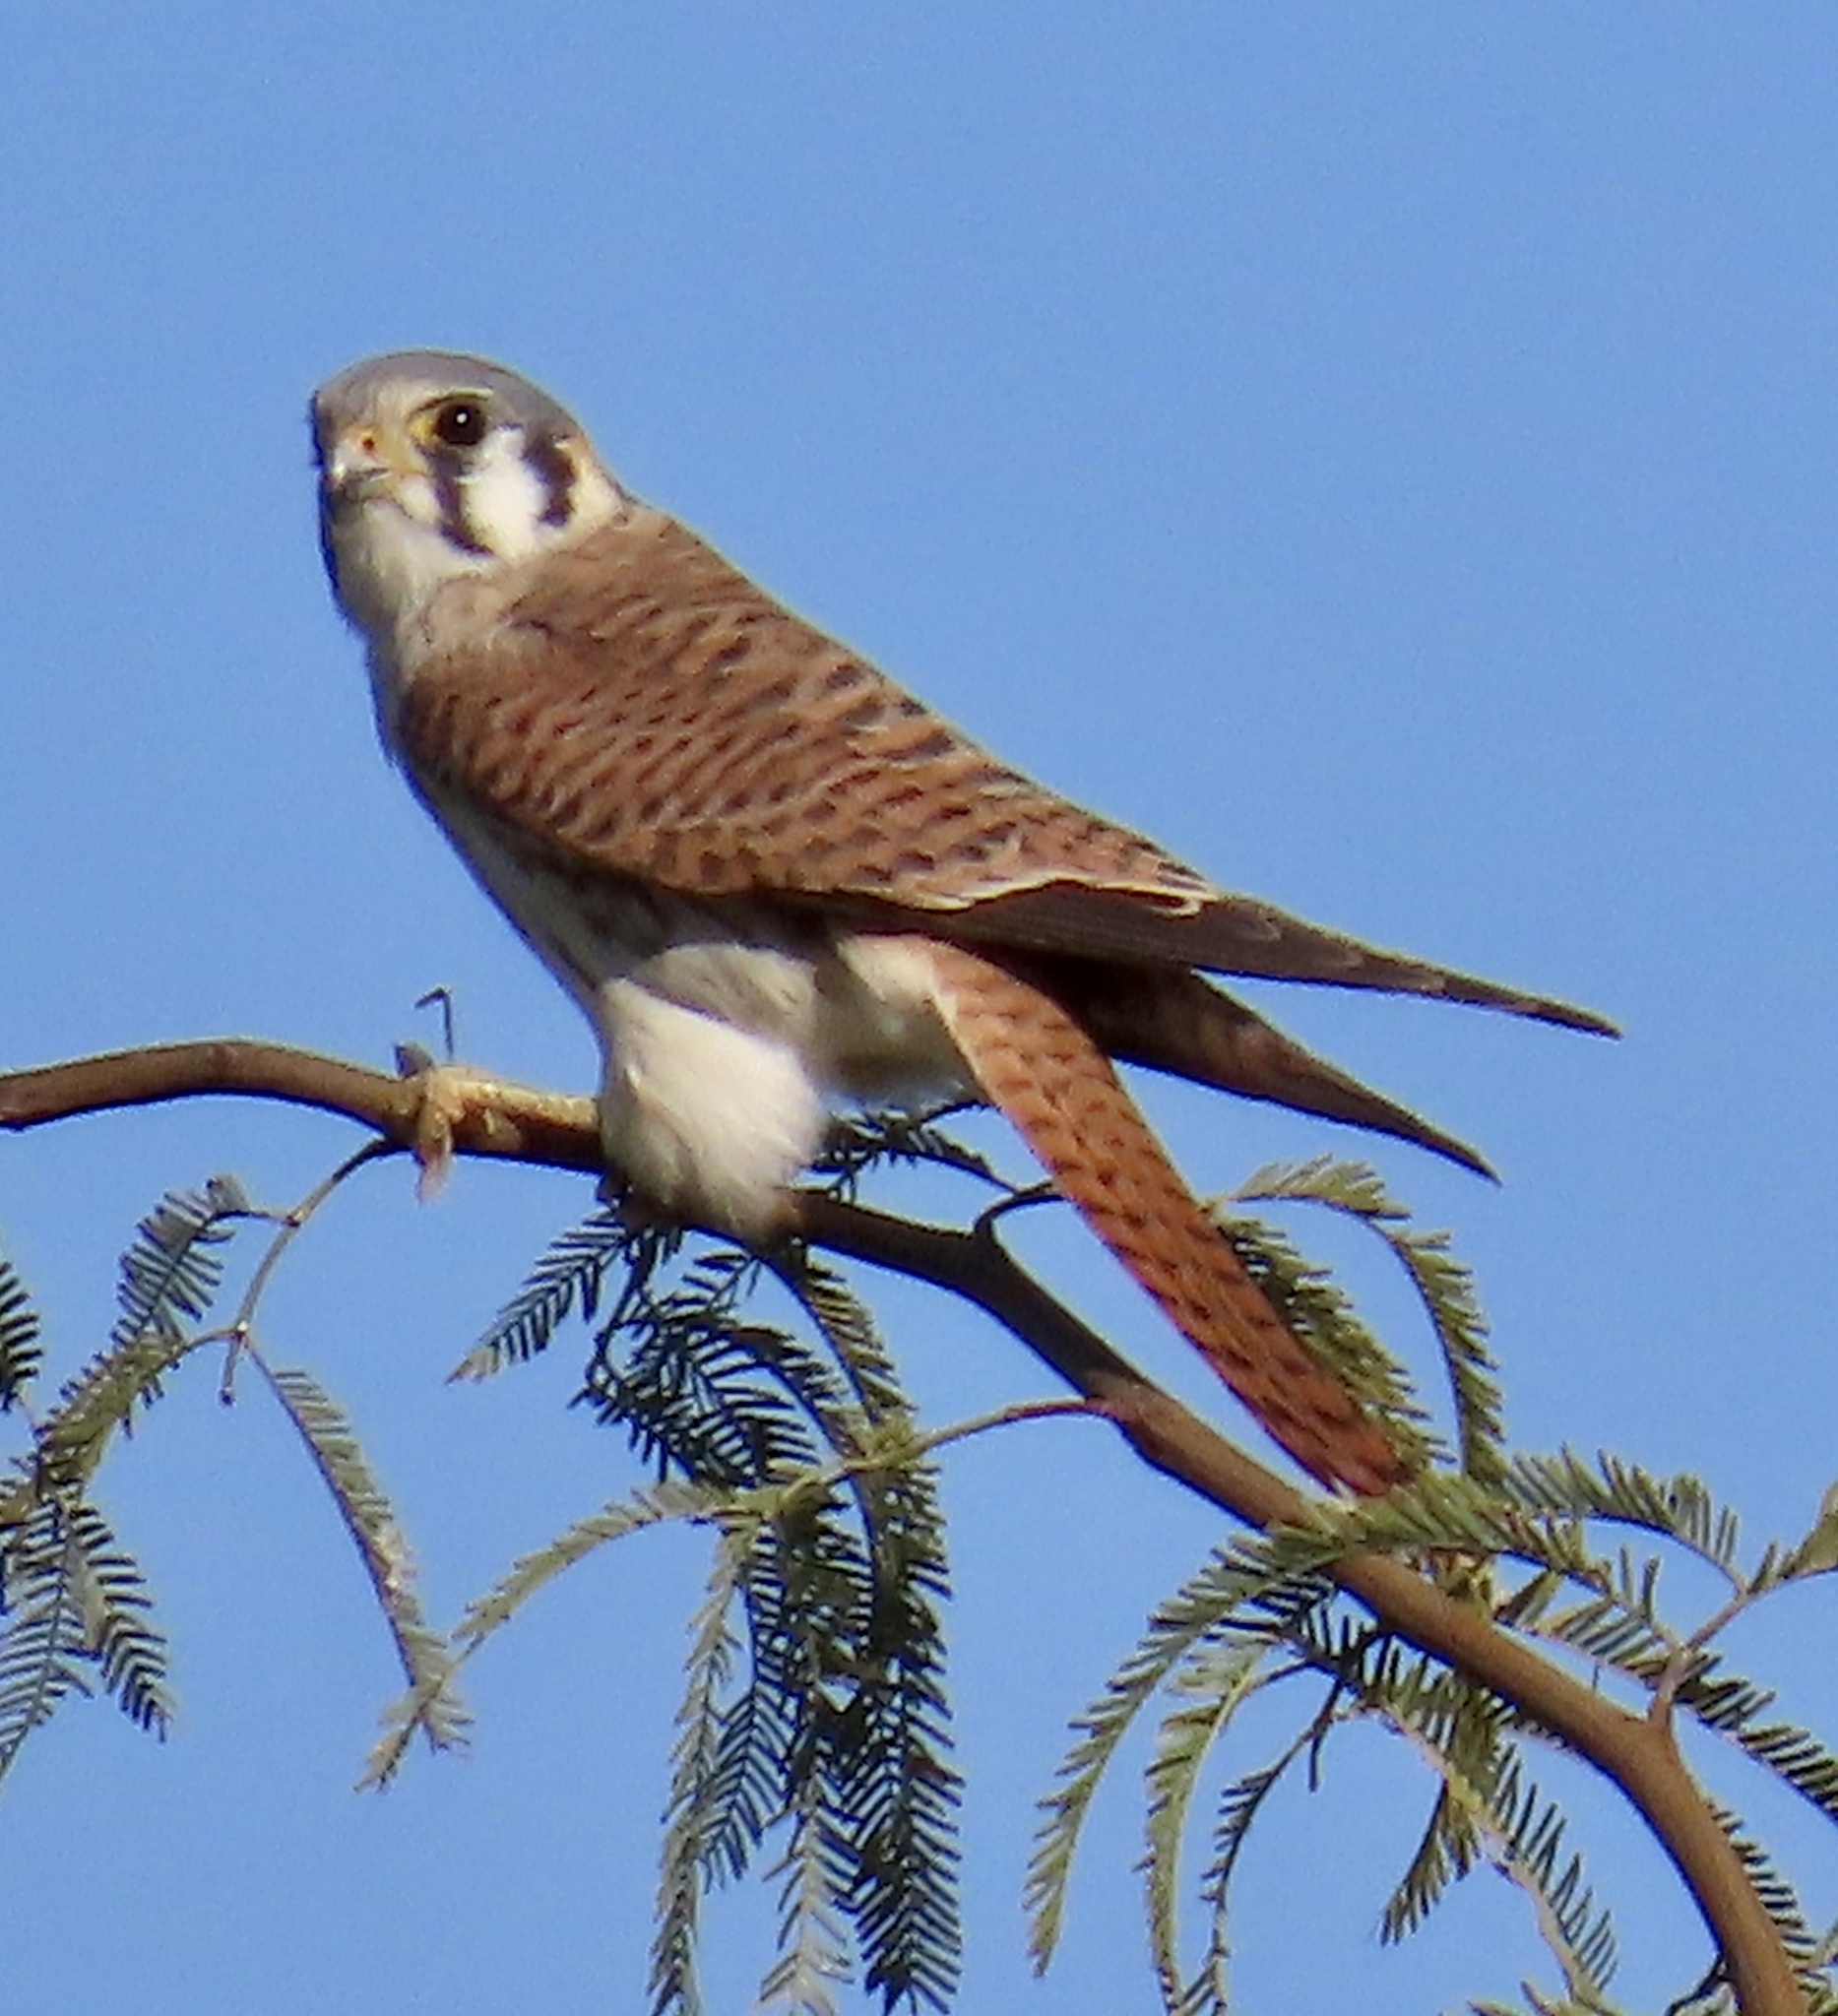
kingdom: Animalia
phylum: Chordata
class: Aves
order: Falconiformes
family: Falconidae
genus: Falco
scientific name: Falco sparverius
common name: American kestrel
